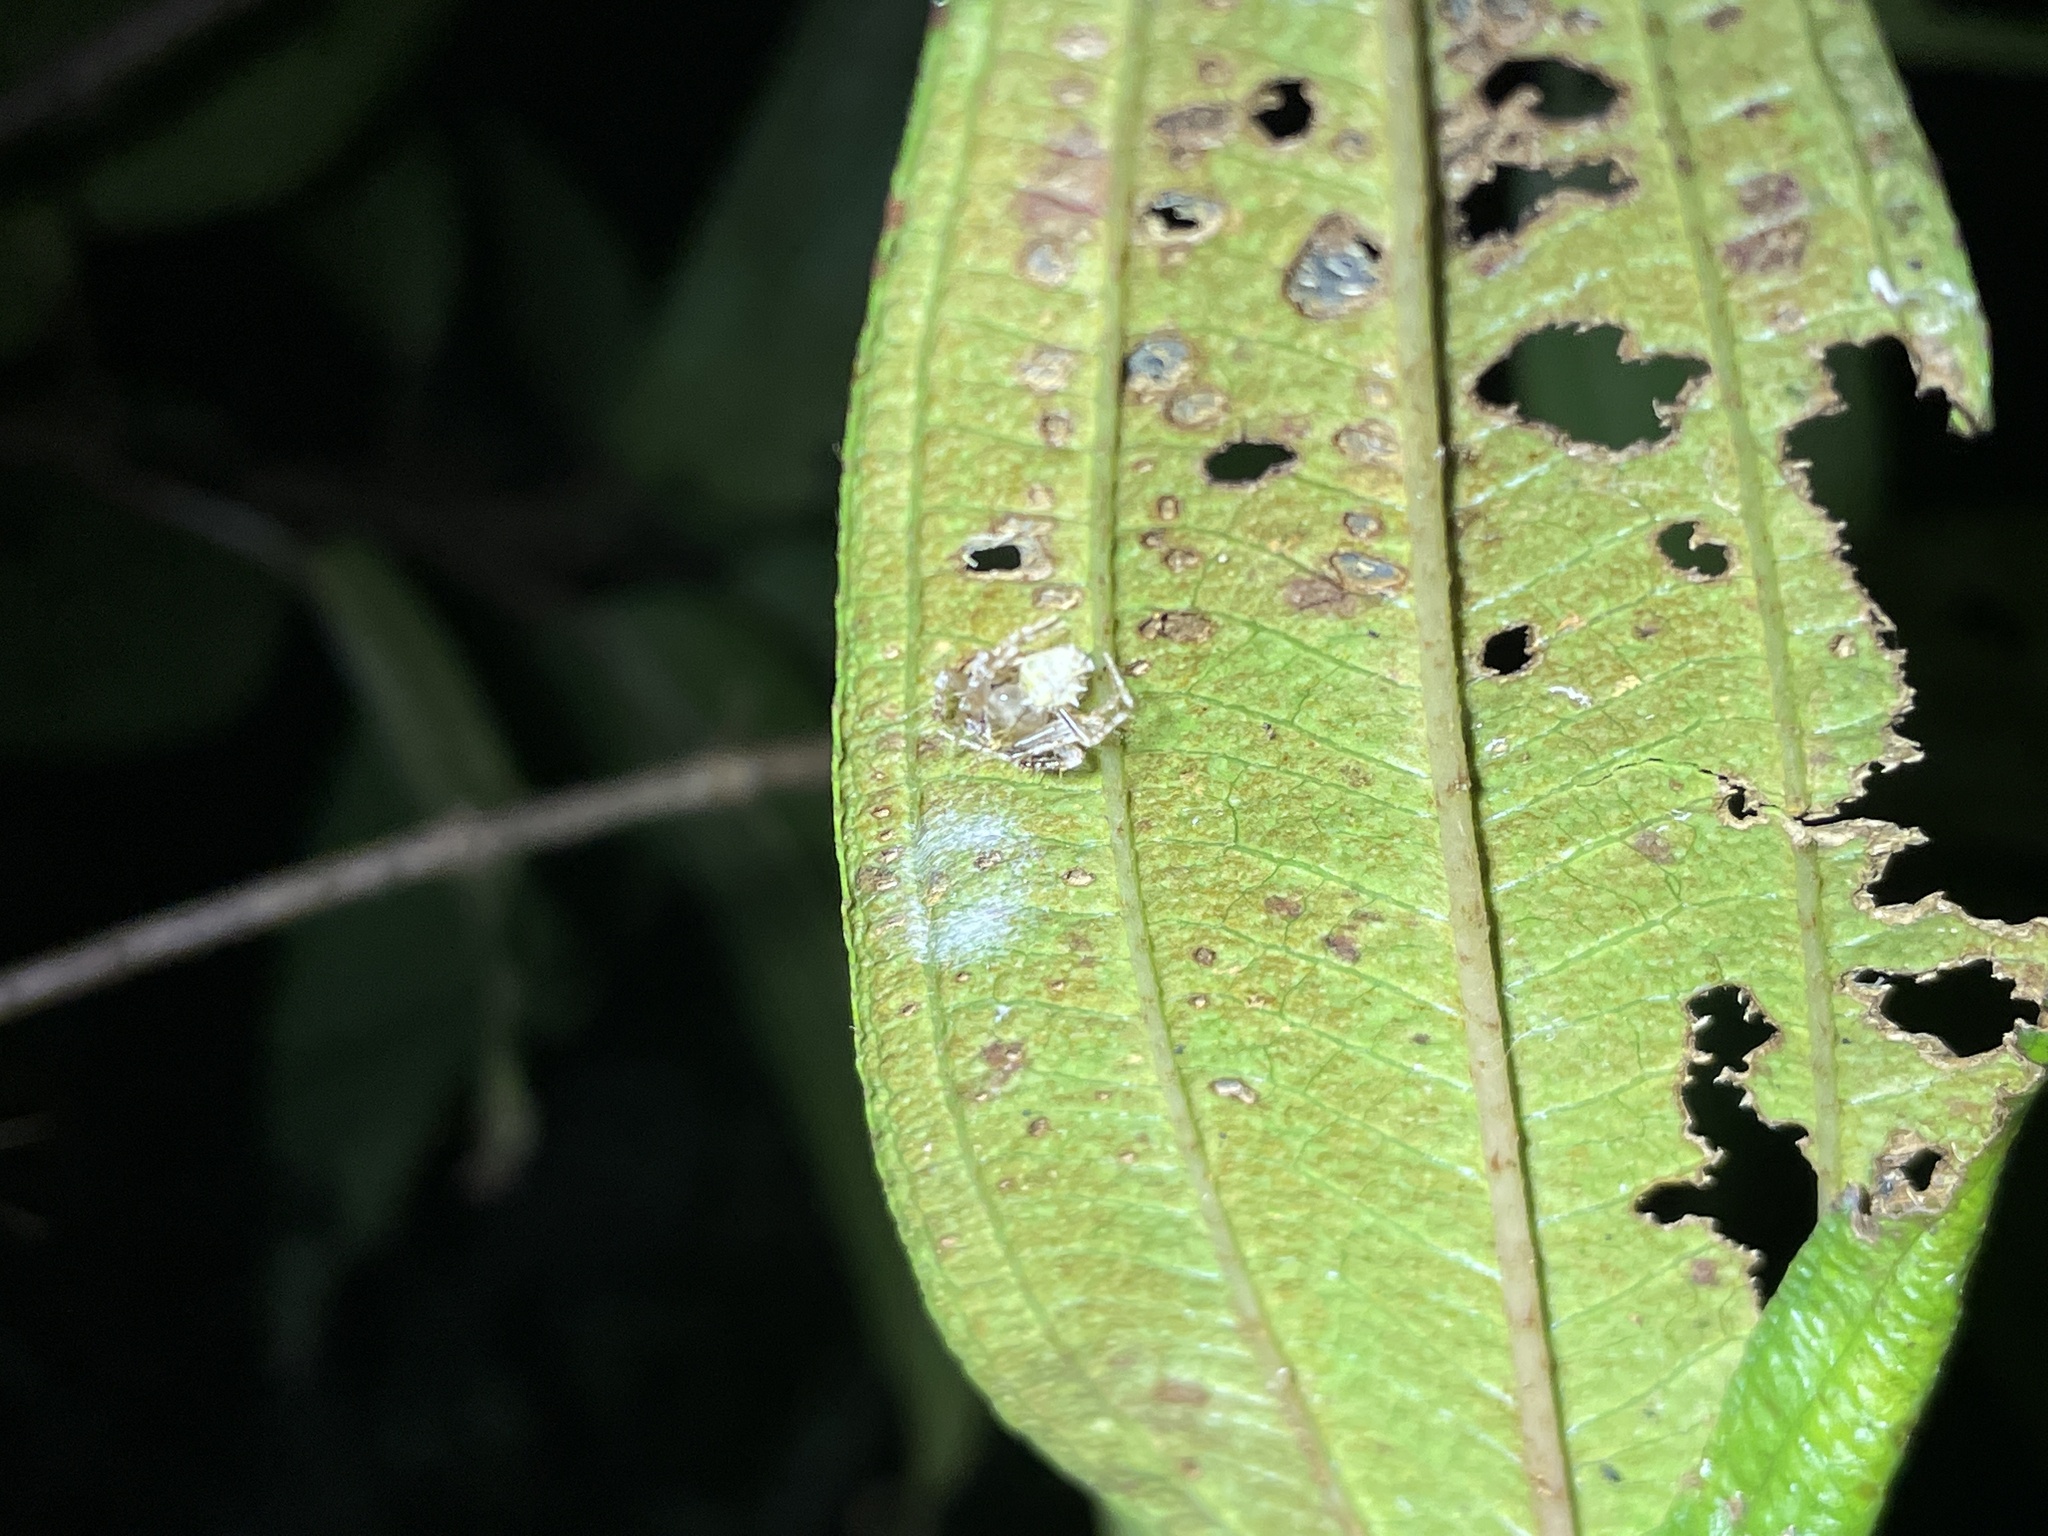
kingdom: Animalia
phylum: Arthropoda
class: Arachnida
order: Araneae
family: Araneidae
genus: Eriovixia
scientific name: Eriovixia laglaizei
